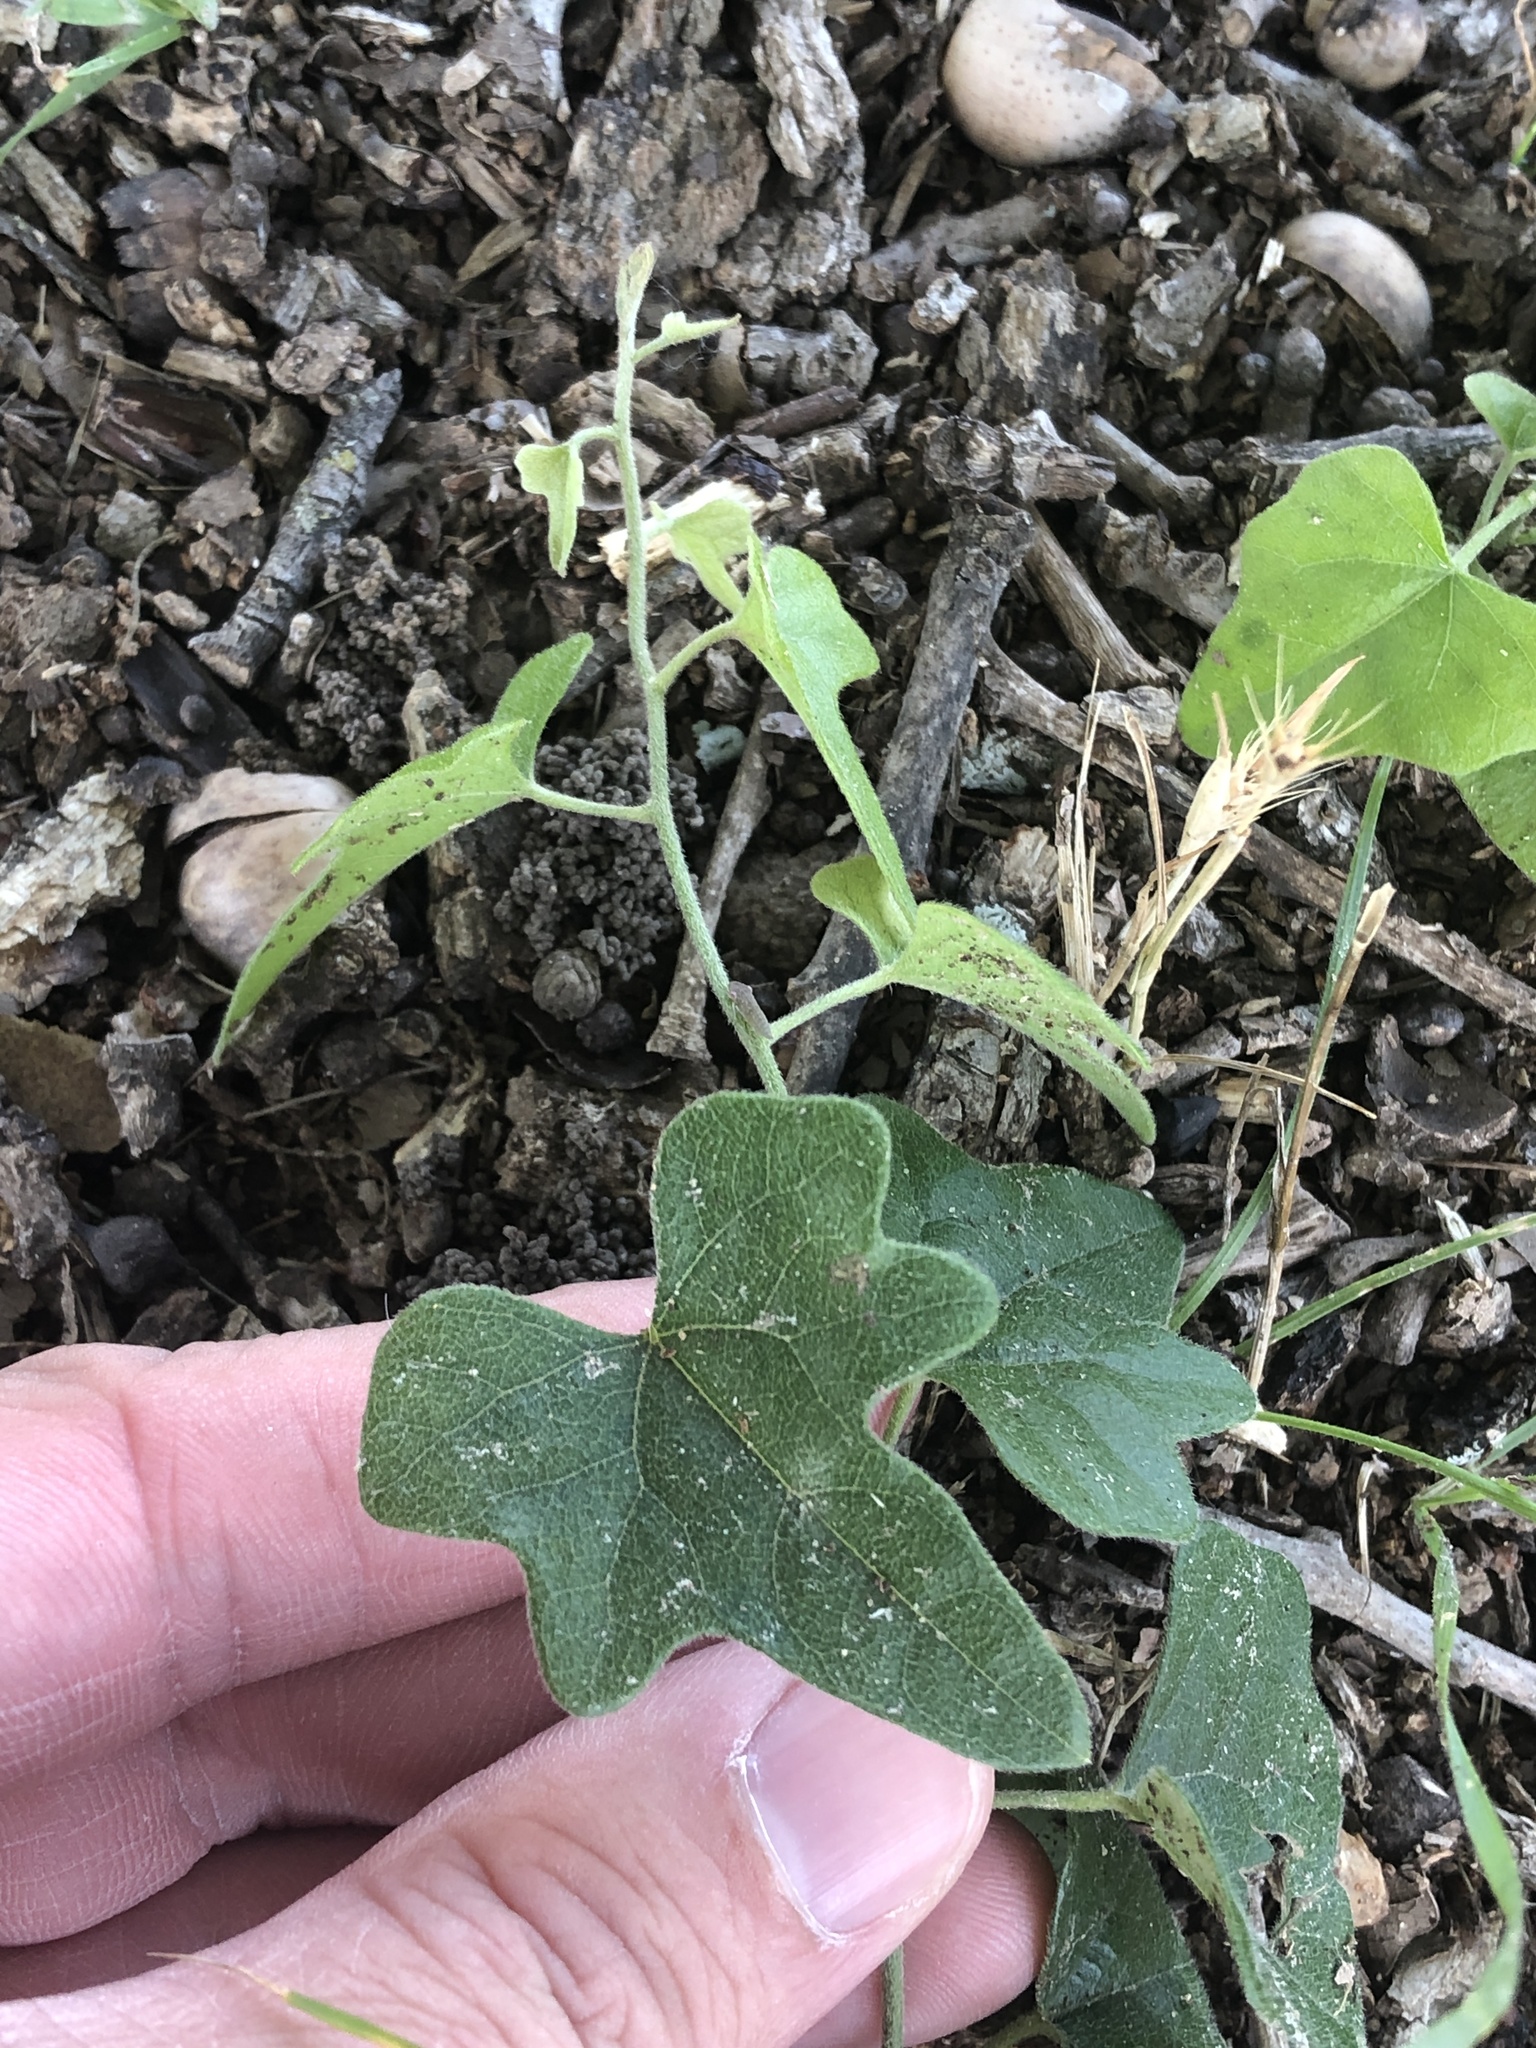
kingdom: Plantae
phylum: Tracheophyta
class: Magnoliopsida
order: Ranunculales
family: Menispermaceae
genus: Cocculus
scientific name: Cocculus carolinus
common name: Carolina moonseed
